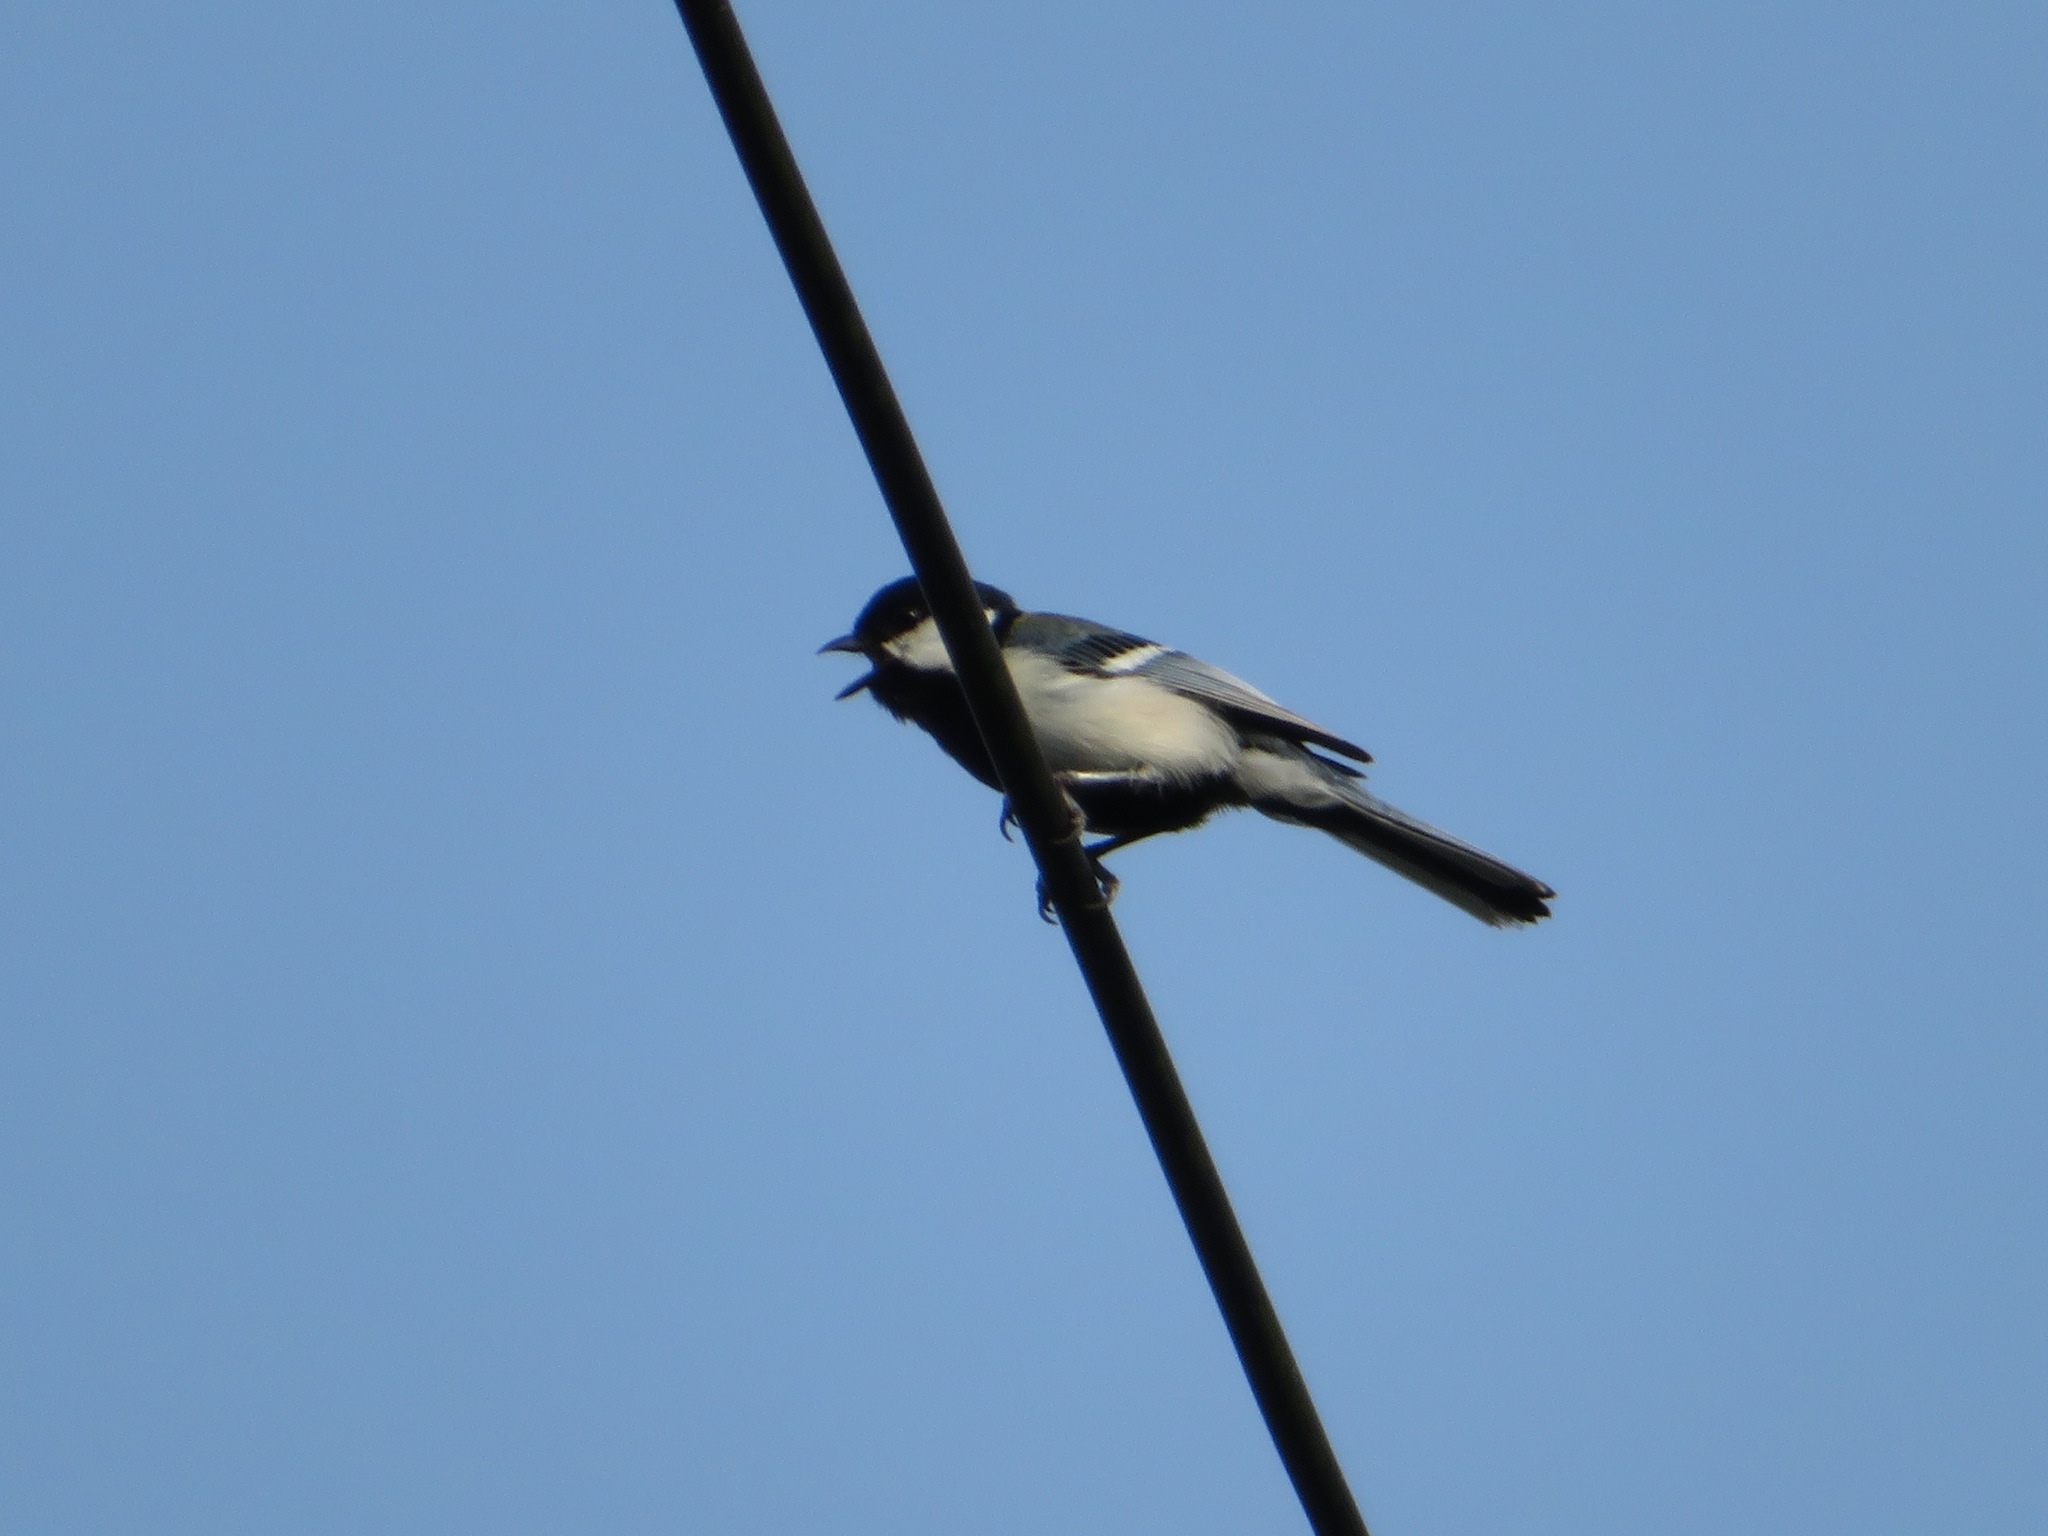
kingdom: Animalia
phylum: Chordata
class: Aves
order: Passeriformes
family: Paridae
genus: Parus
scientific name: Parus minor
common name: Japanese tit
